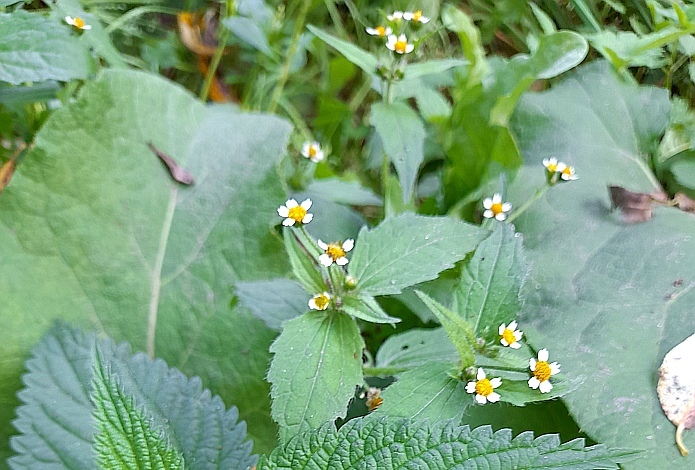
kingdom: Plantae
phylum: Tracheophyta
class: Magnoliopsida
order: Asterales
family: Asteraceae
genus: Galinsoga
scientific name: Galinsoga quadriradiata
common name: Shaggy soldier
